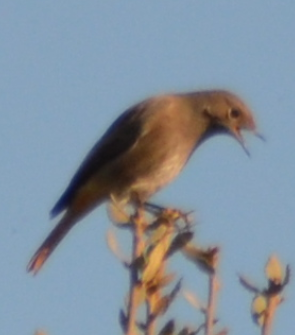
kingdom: Animalia
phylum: Chordata
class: Aves
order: Passeriformes
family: Muscicapidae
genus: Phoenicurus
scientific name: Phoenicurus ochruros
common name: Black redstart
